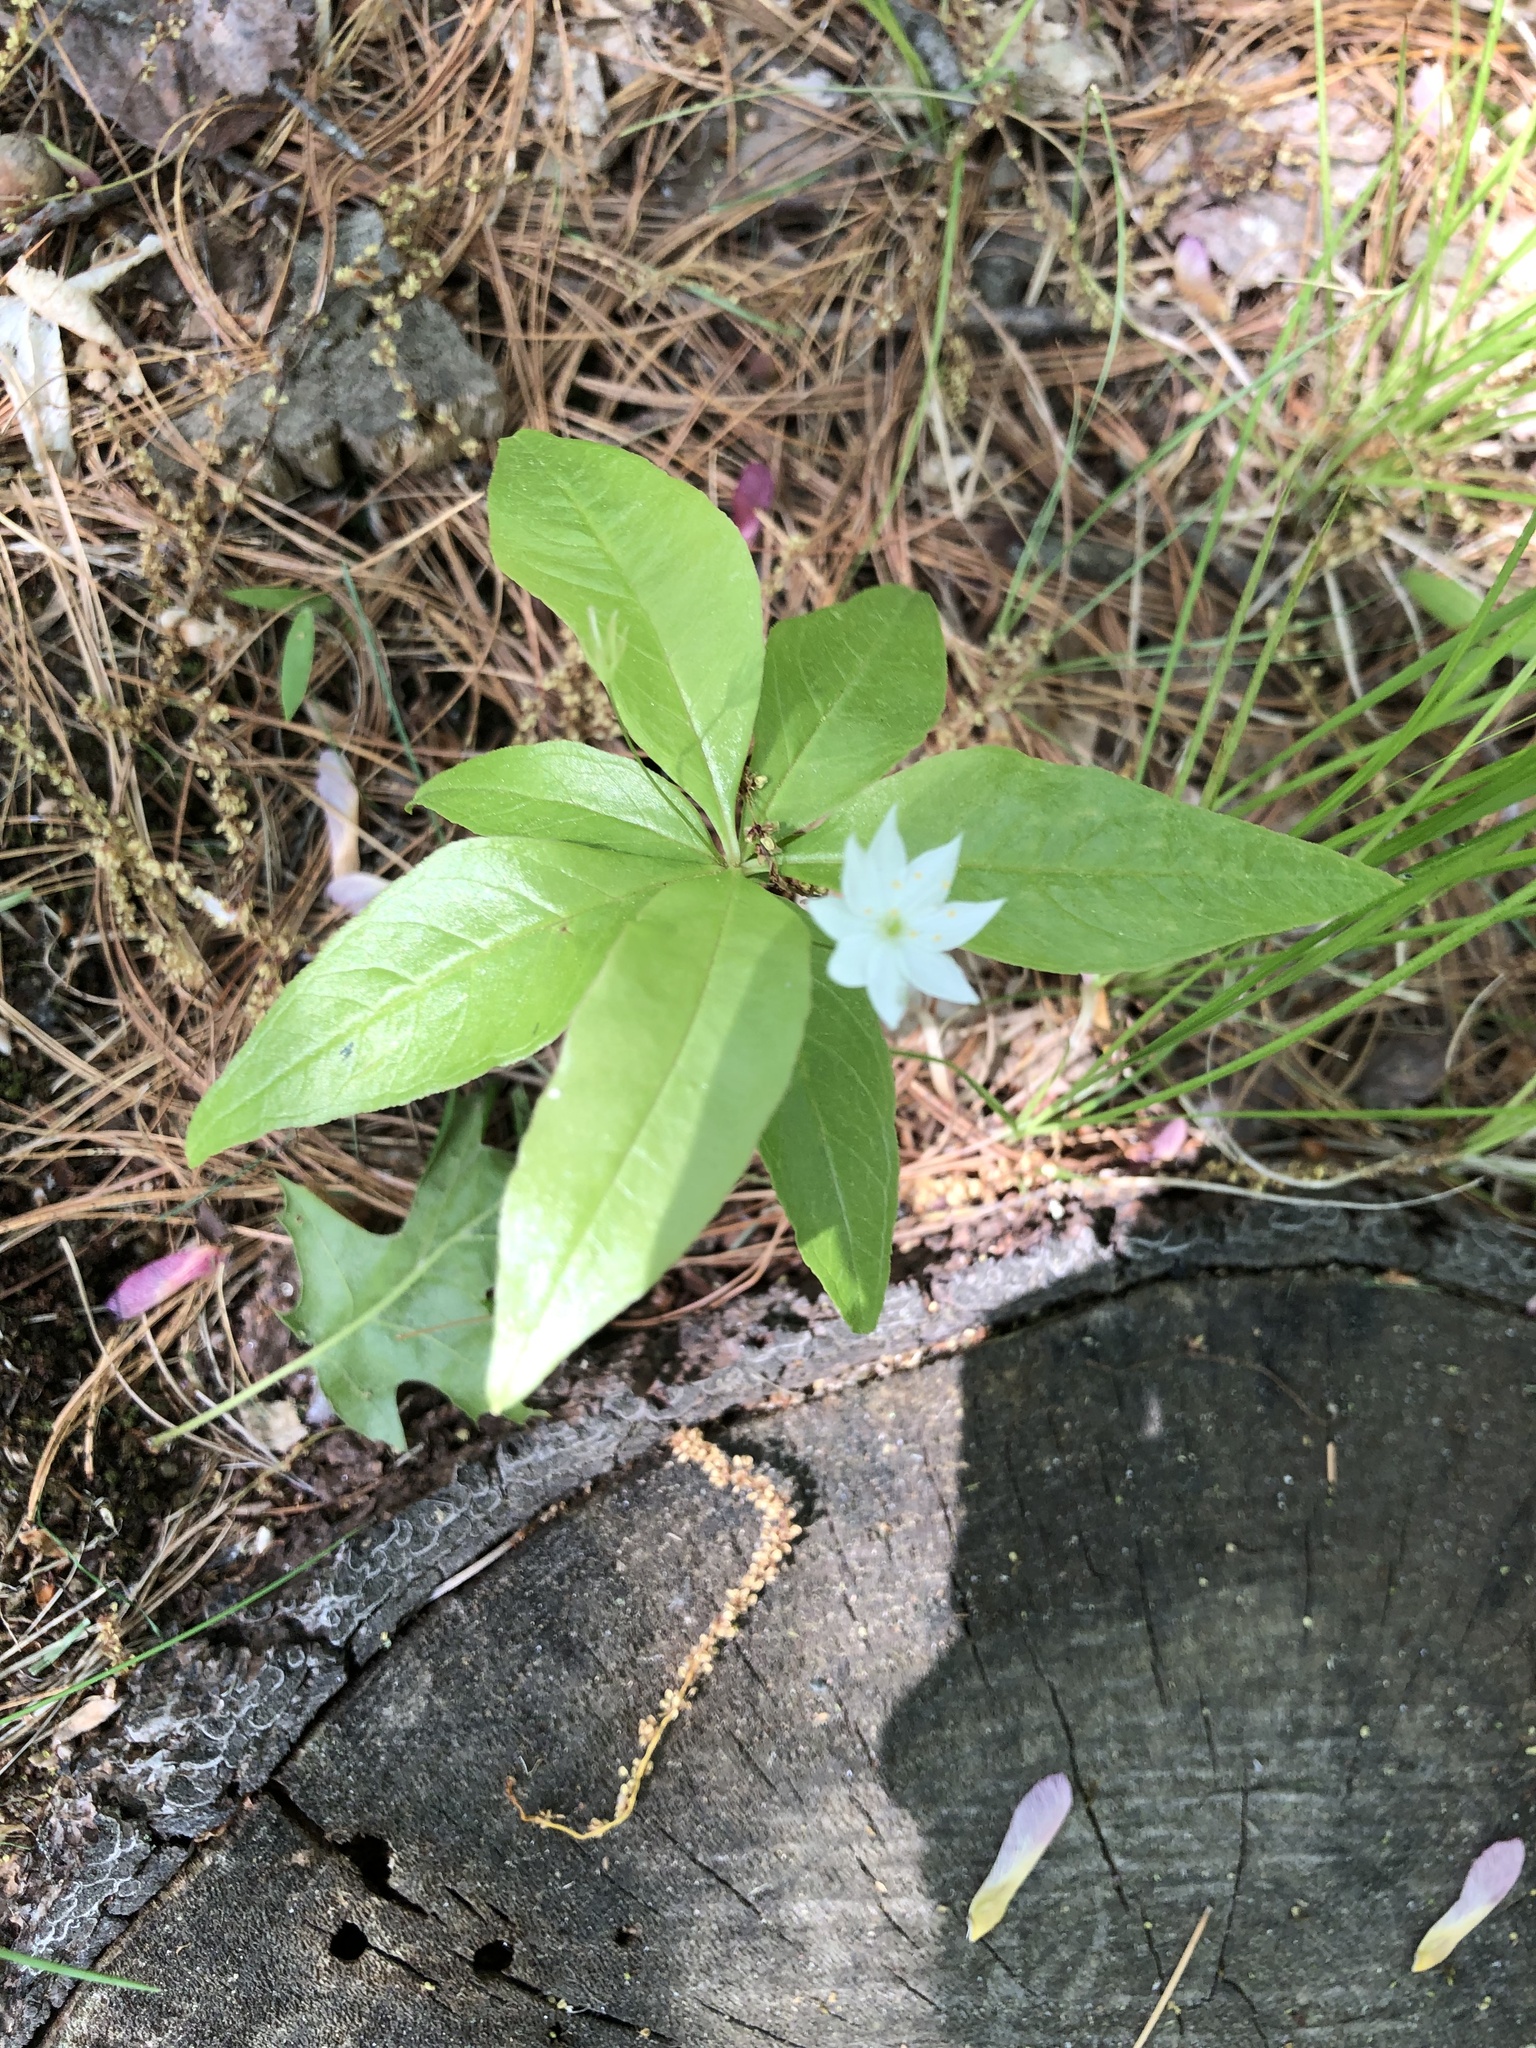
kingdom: Plantae
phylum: Tracheophyta
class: Magnoliopsida
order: Ericales
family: Primulaceae
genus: Lysimachia
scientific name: Lysimachia borealis
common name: American starflower
